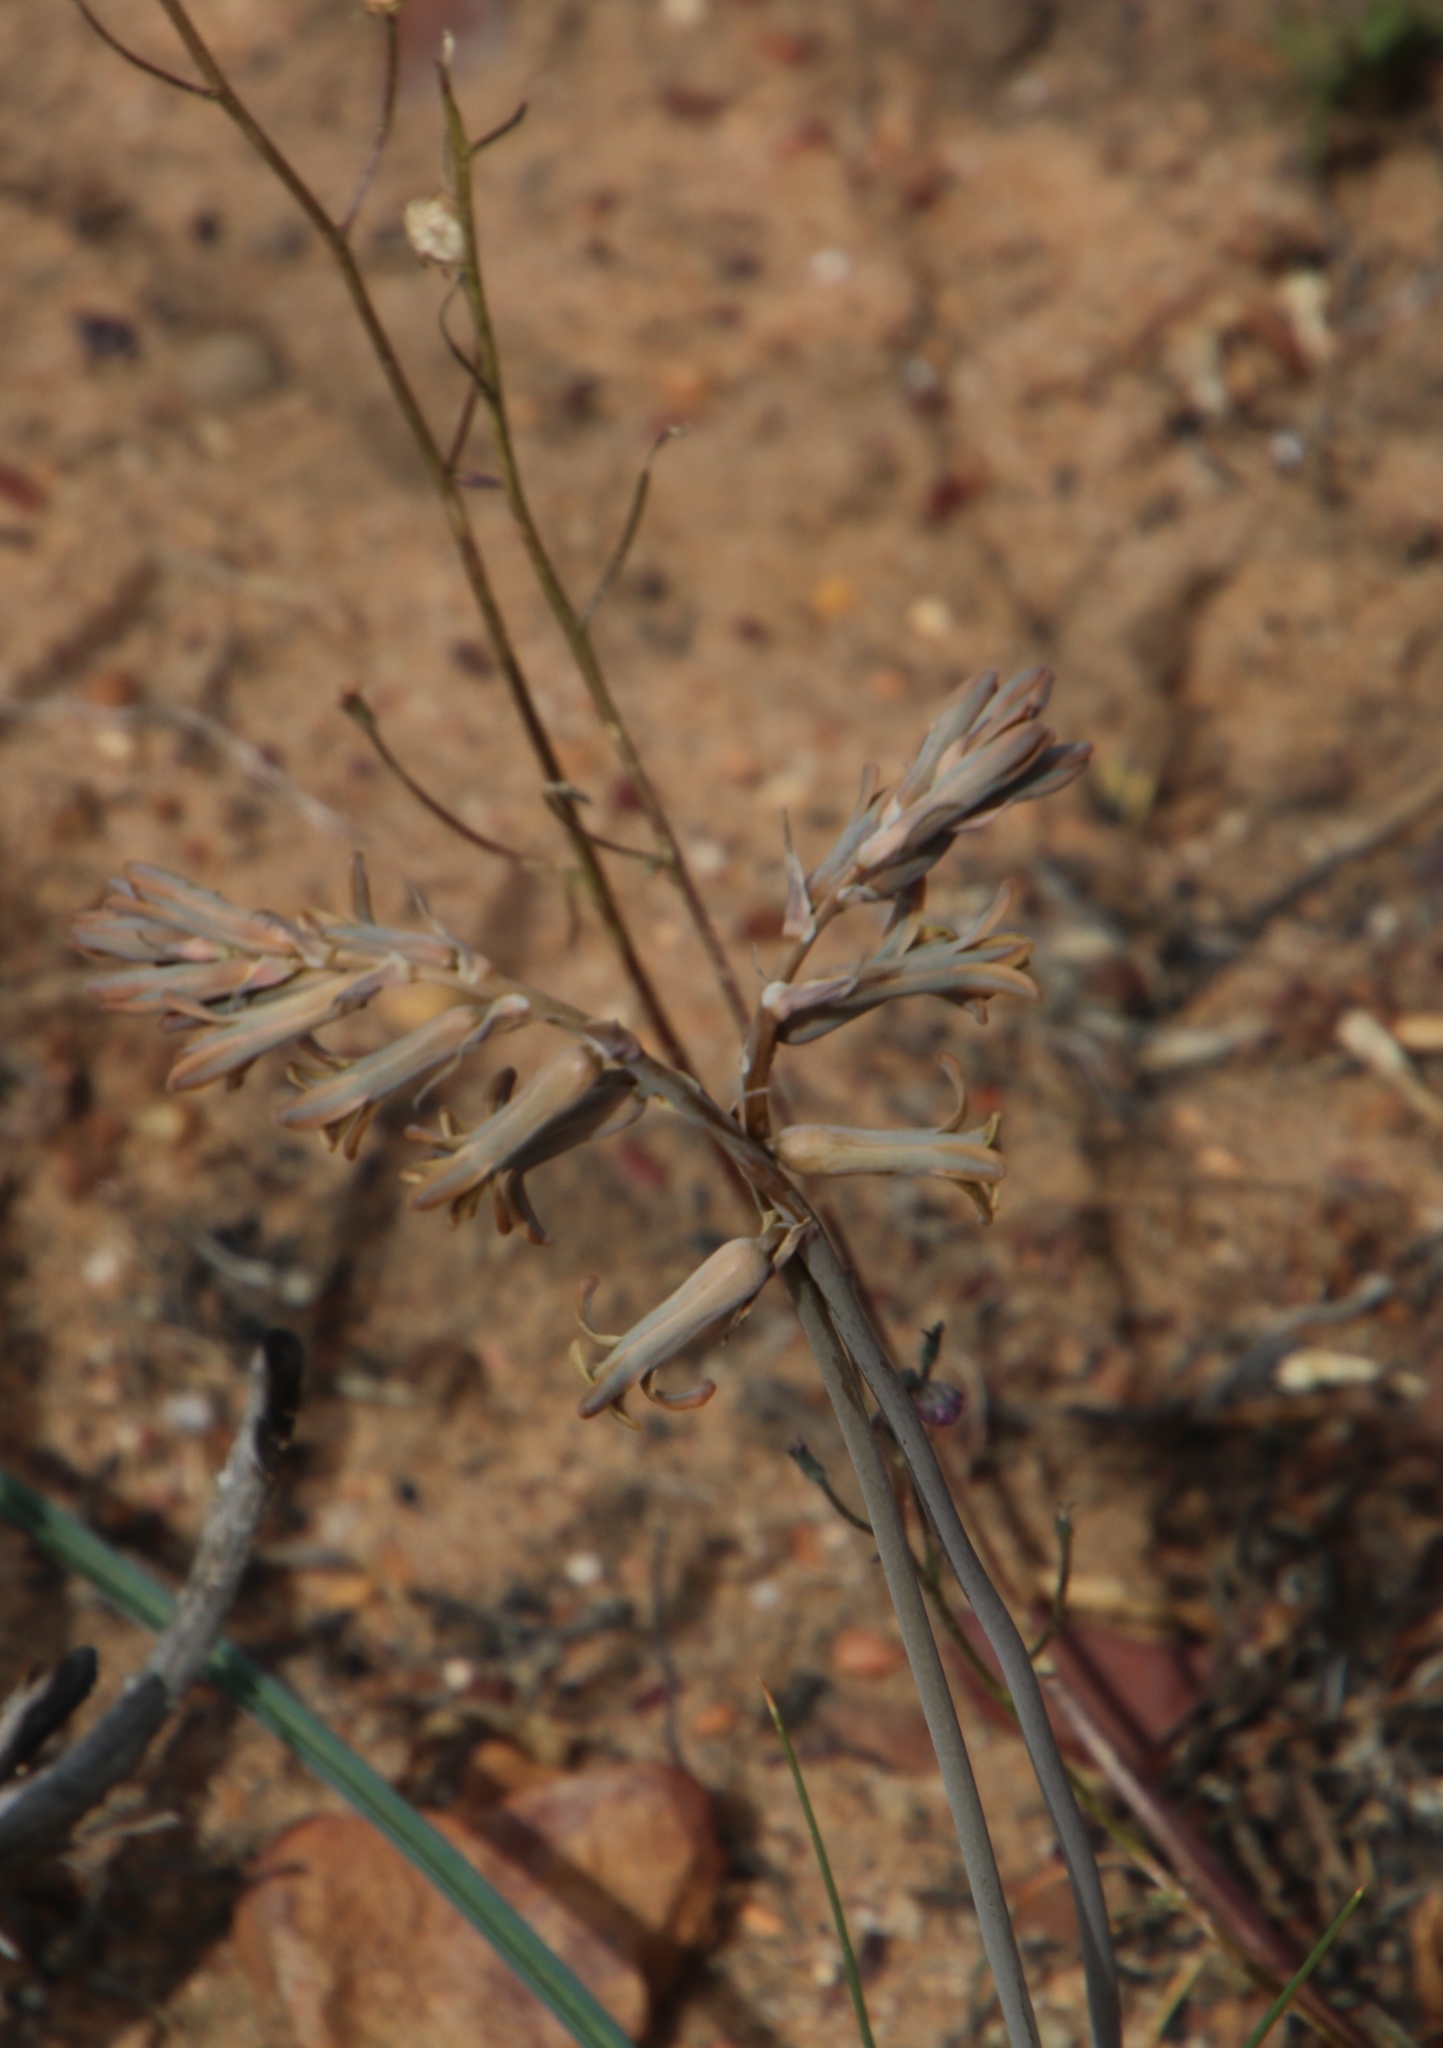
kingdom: Plantae
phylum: Tracheophyta
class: Liliopsida
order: Asparagales
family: Asparagaceae
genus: Dipcadi
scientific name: Dipcadi brevifolium
